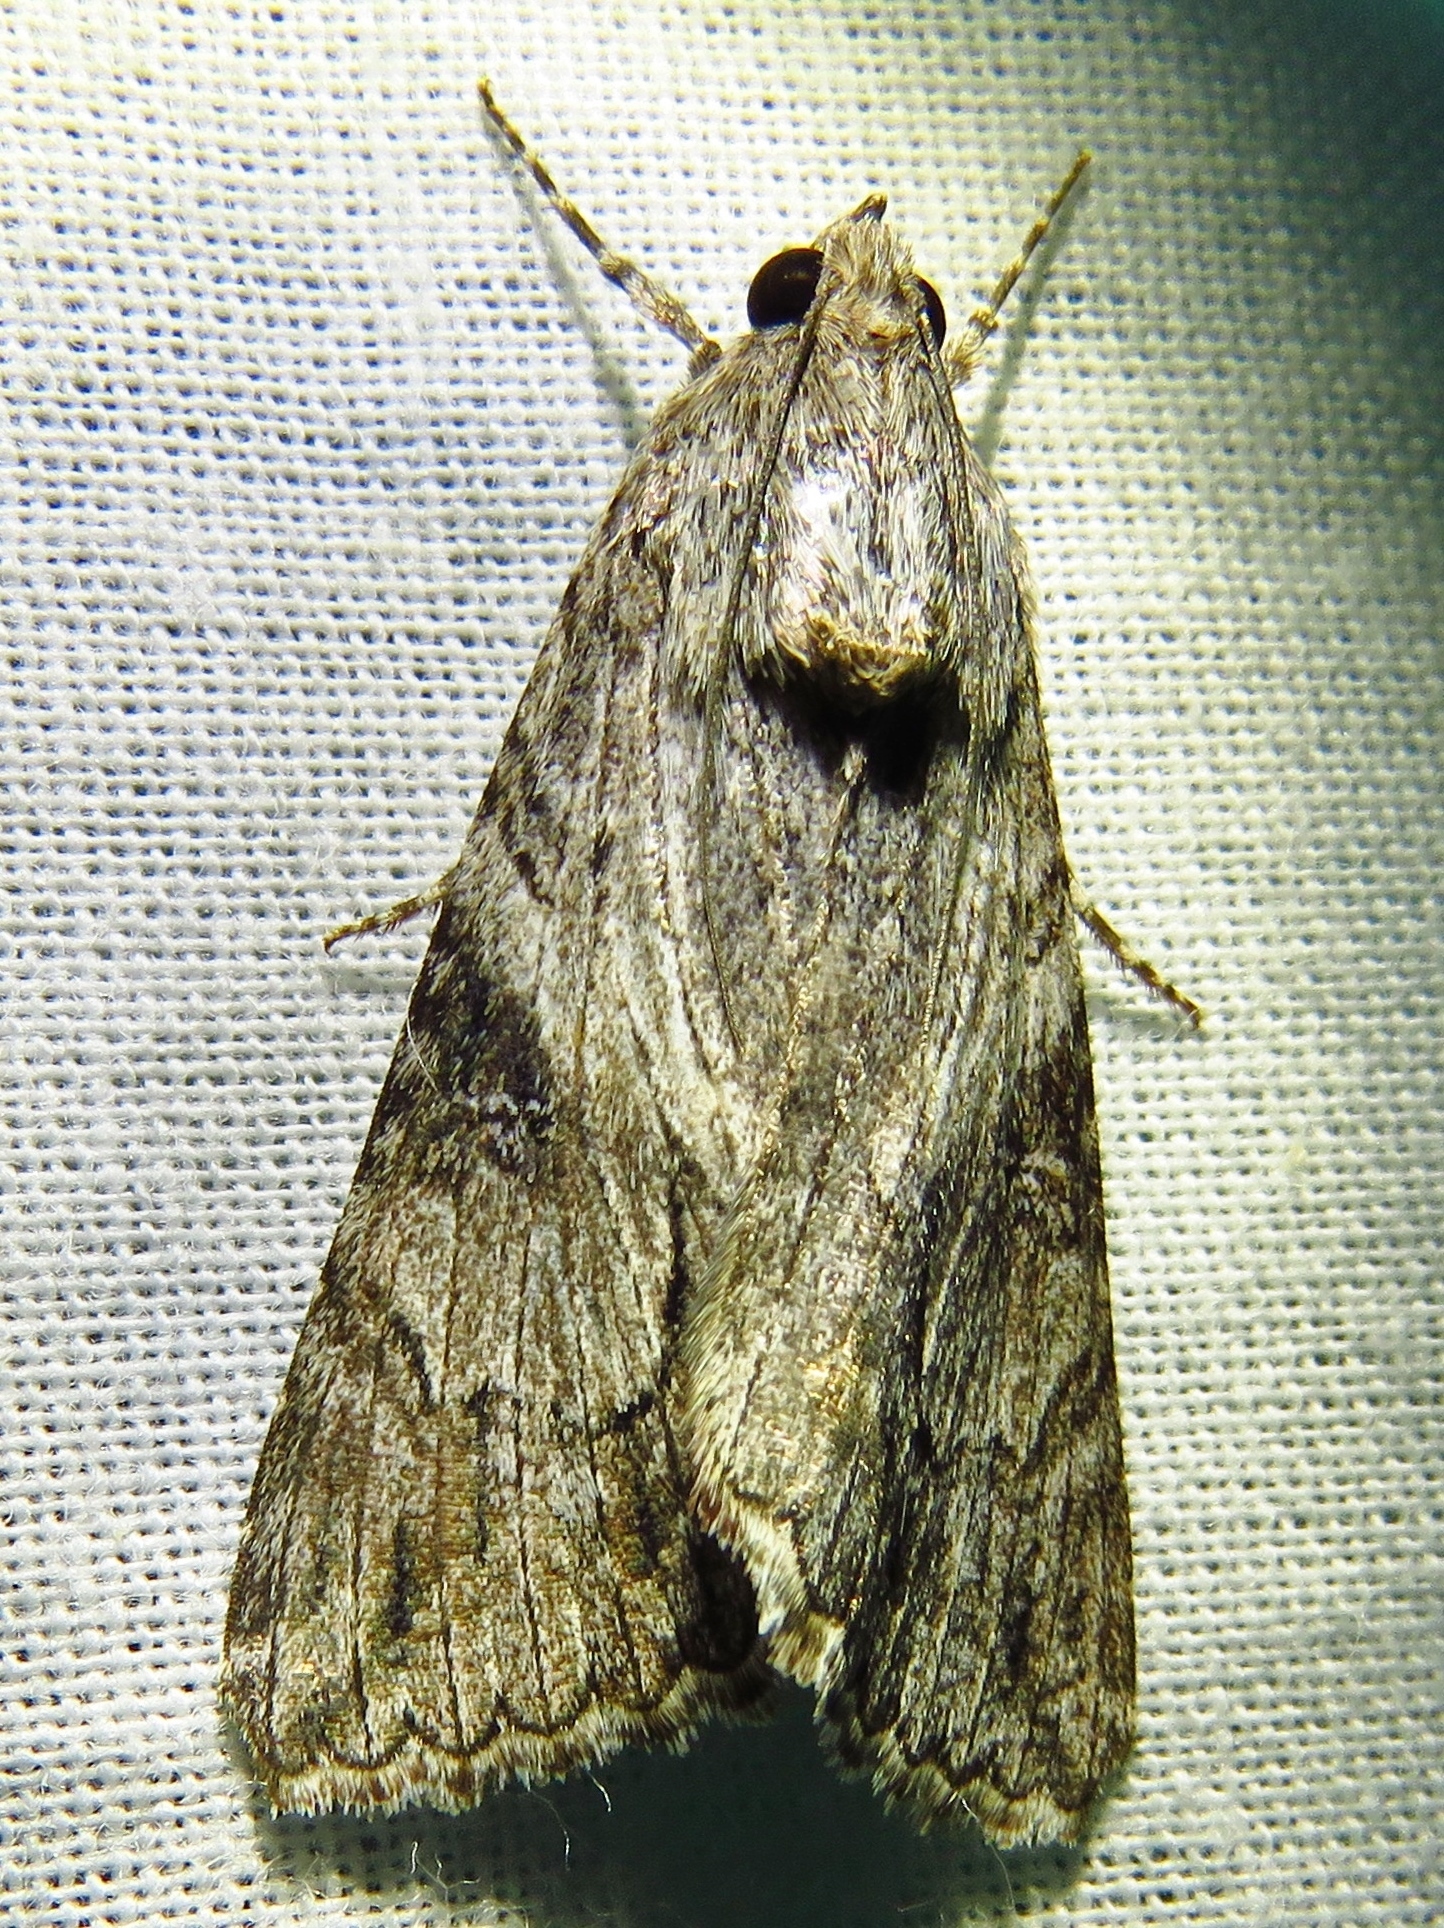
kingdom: Animalia
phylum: Arthropoda
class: Insecta
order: Lepidoptera
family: Erebidae
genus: Melipotis
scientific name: Melipotis jucunda
